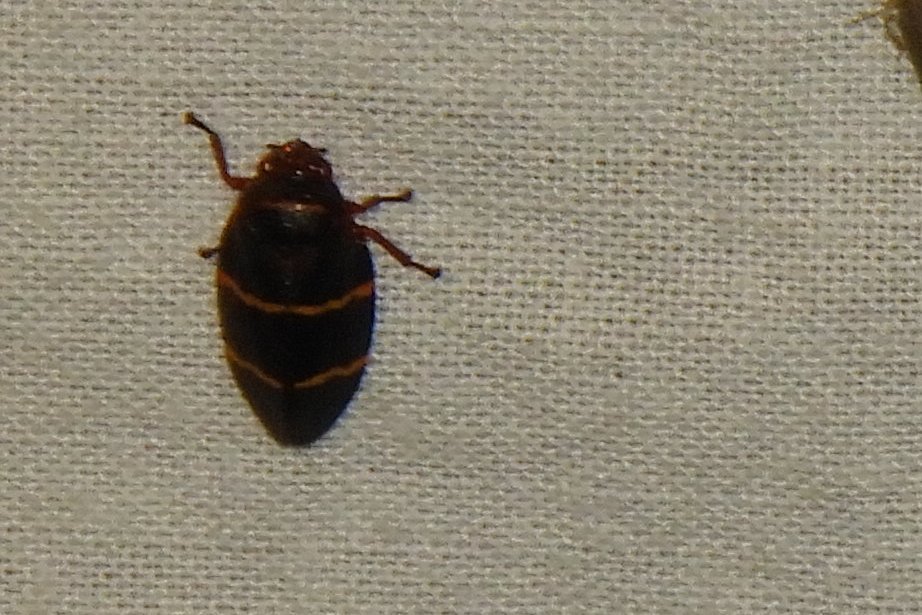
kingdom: Animalia
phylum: Arthropoda
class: Insecta
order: Hemiptera
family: Cercopidae
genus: Prosapia
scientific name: Prosapia bicincta
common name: Twolined spittlebug
